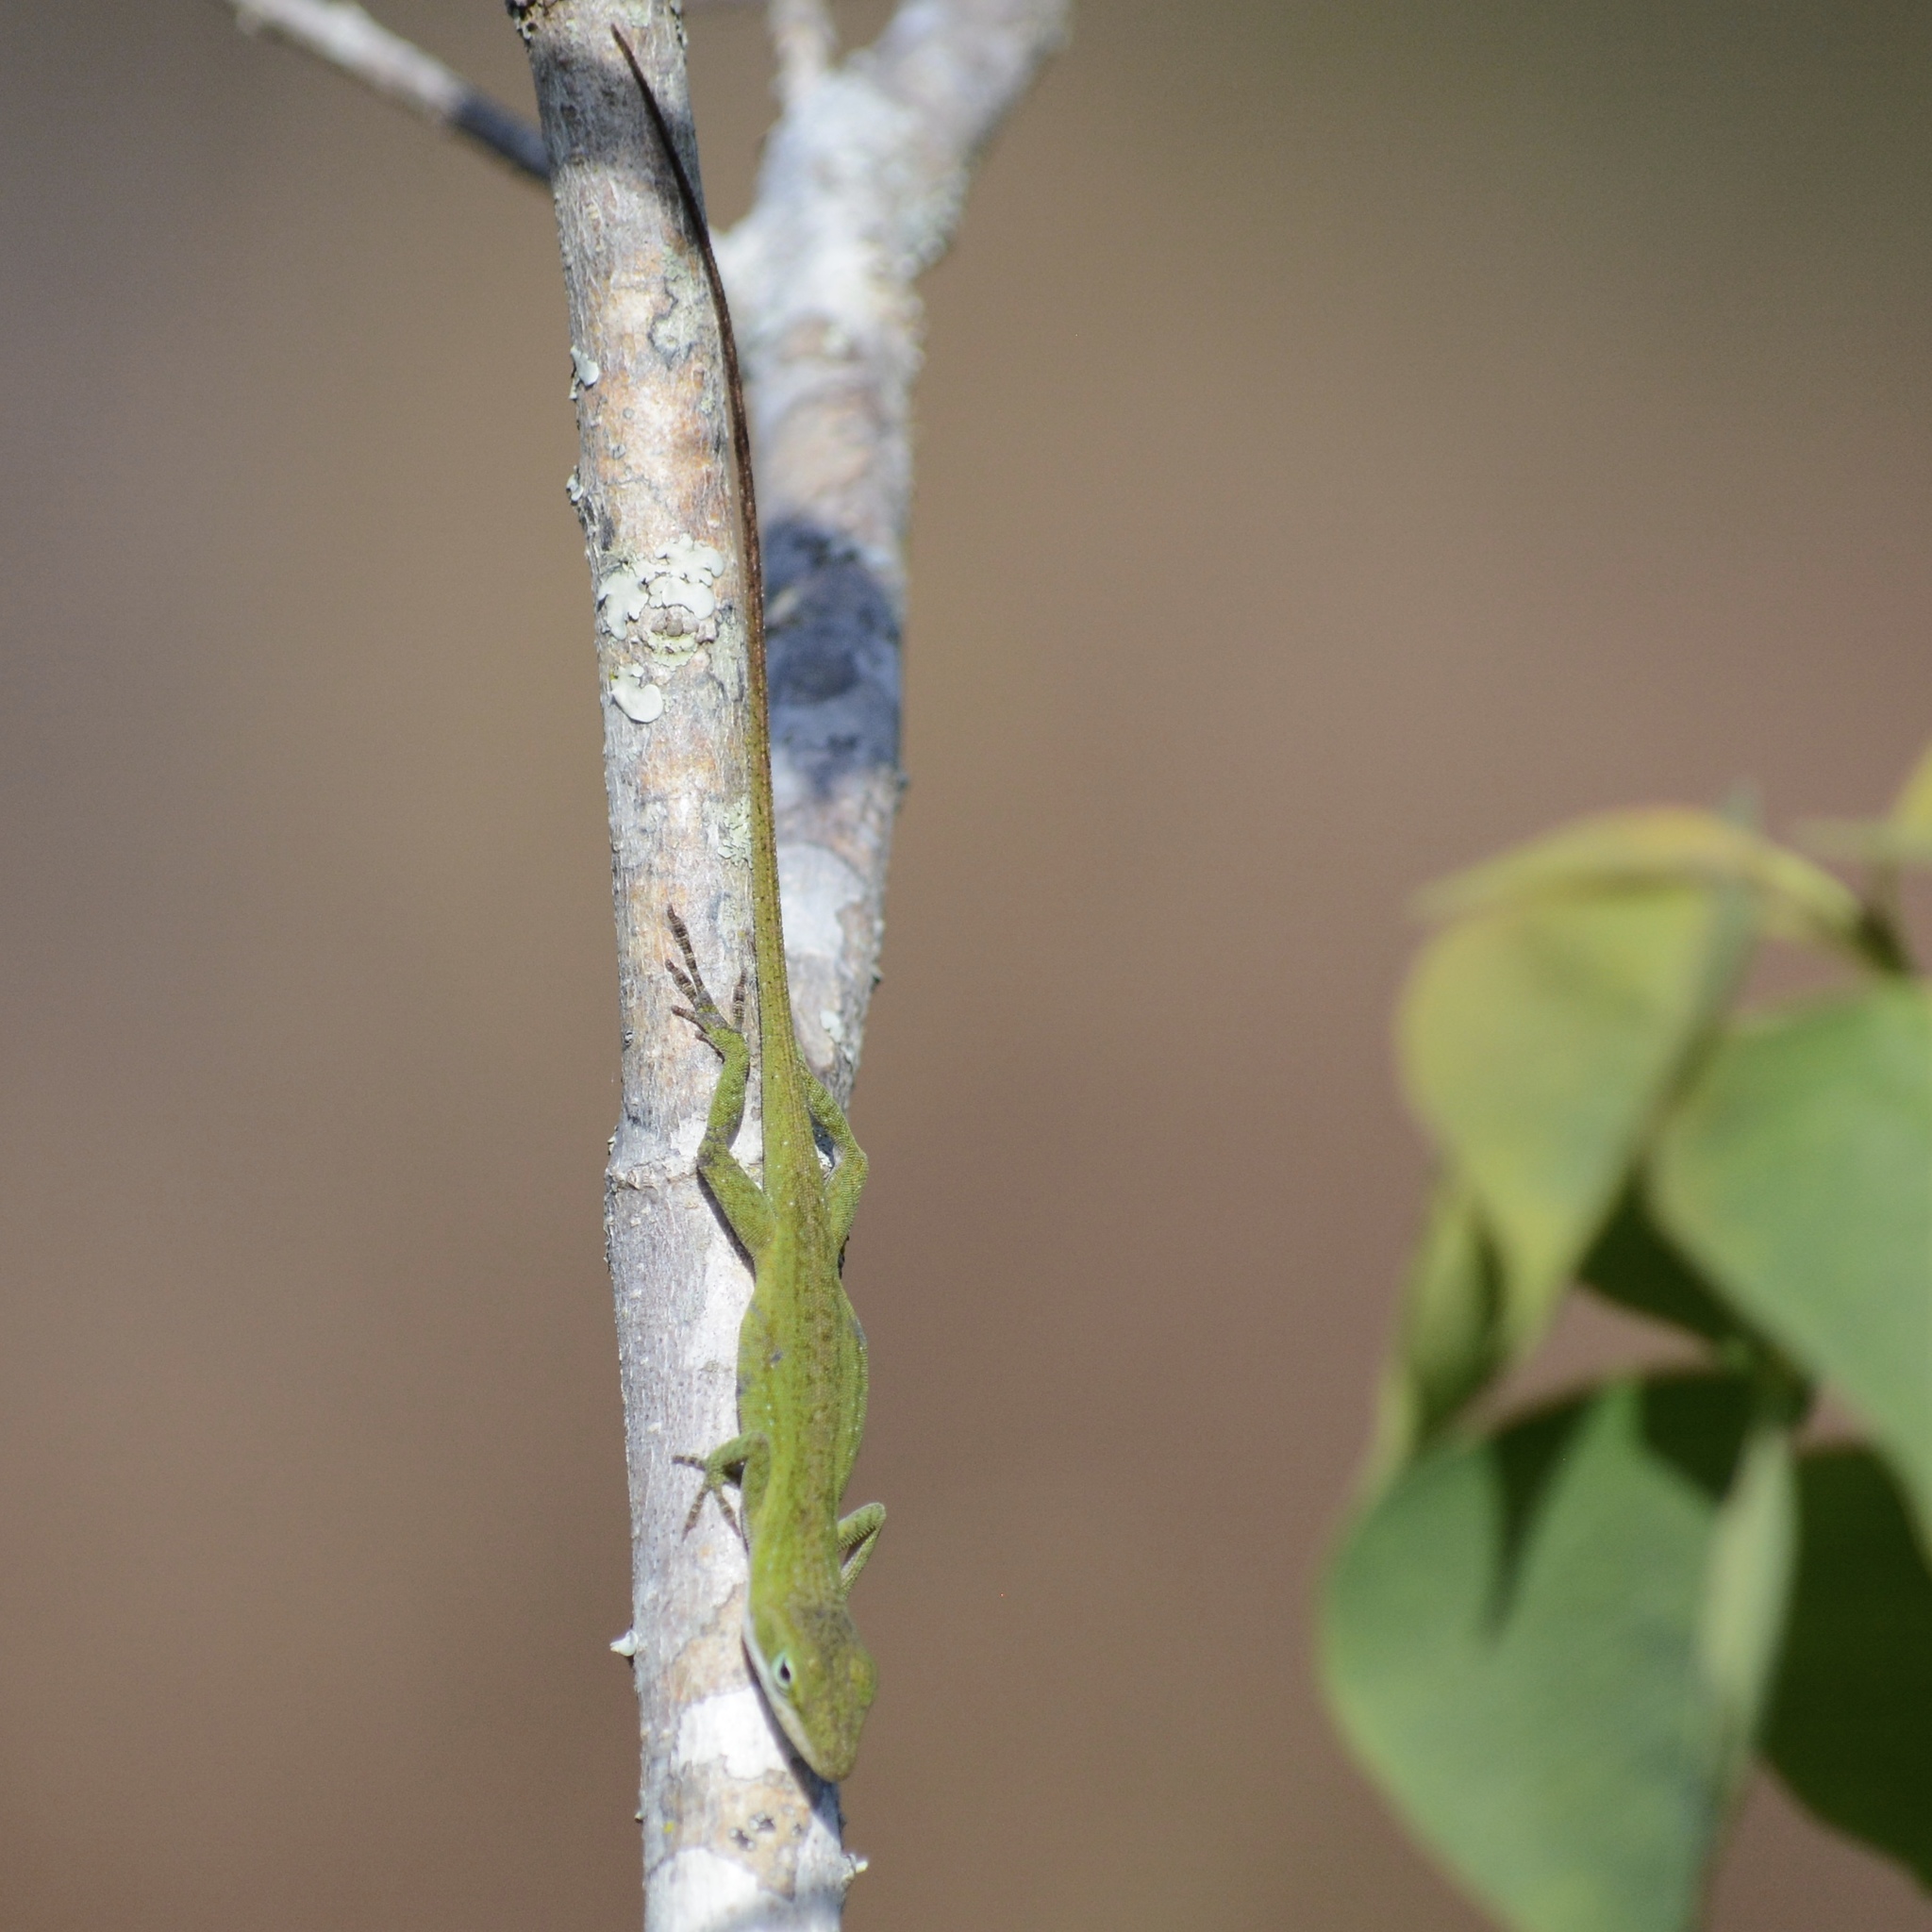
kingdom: Animalia
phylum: Chordata
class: Squamata
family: Dactyloidae
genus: Anolis
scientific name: Anolis carolinensis
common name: Green anole
